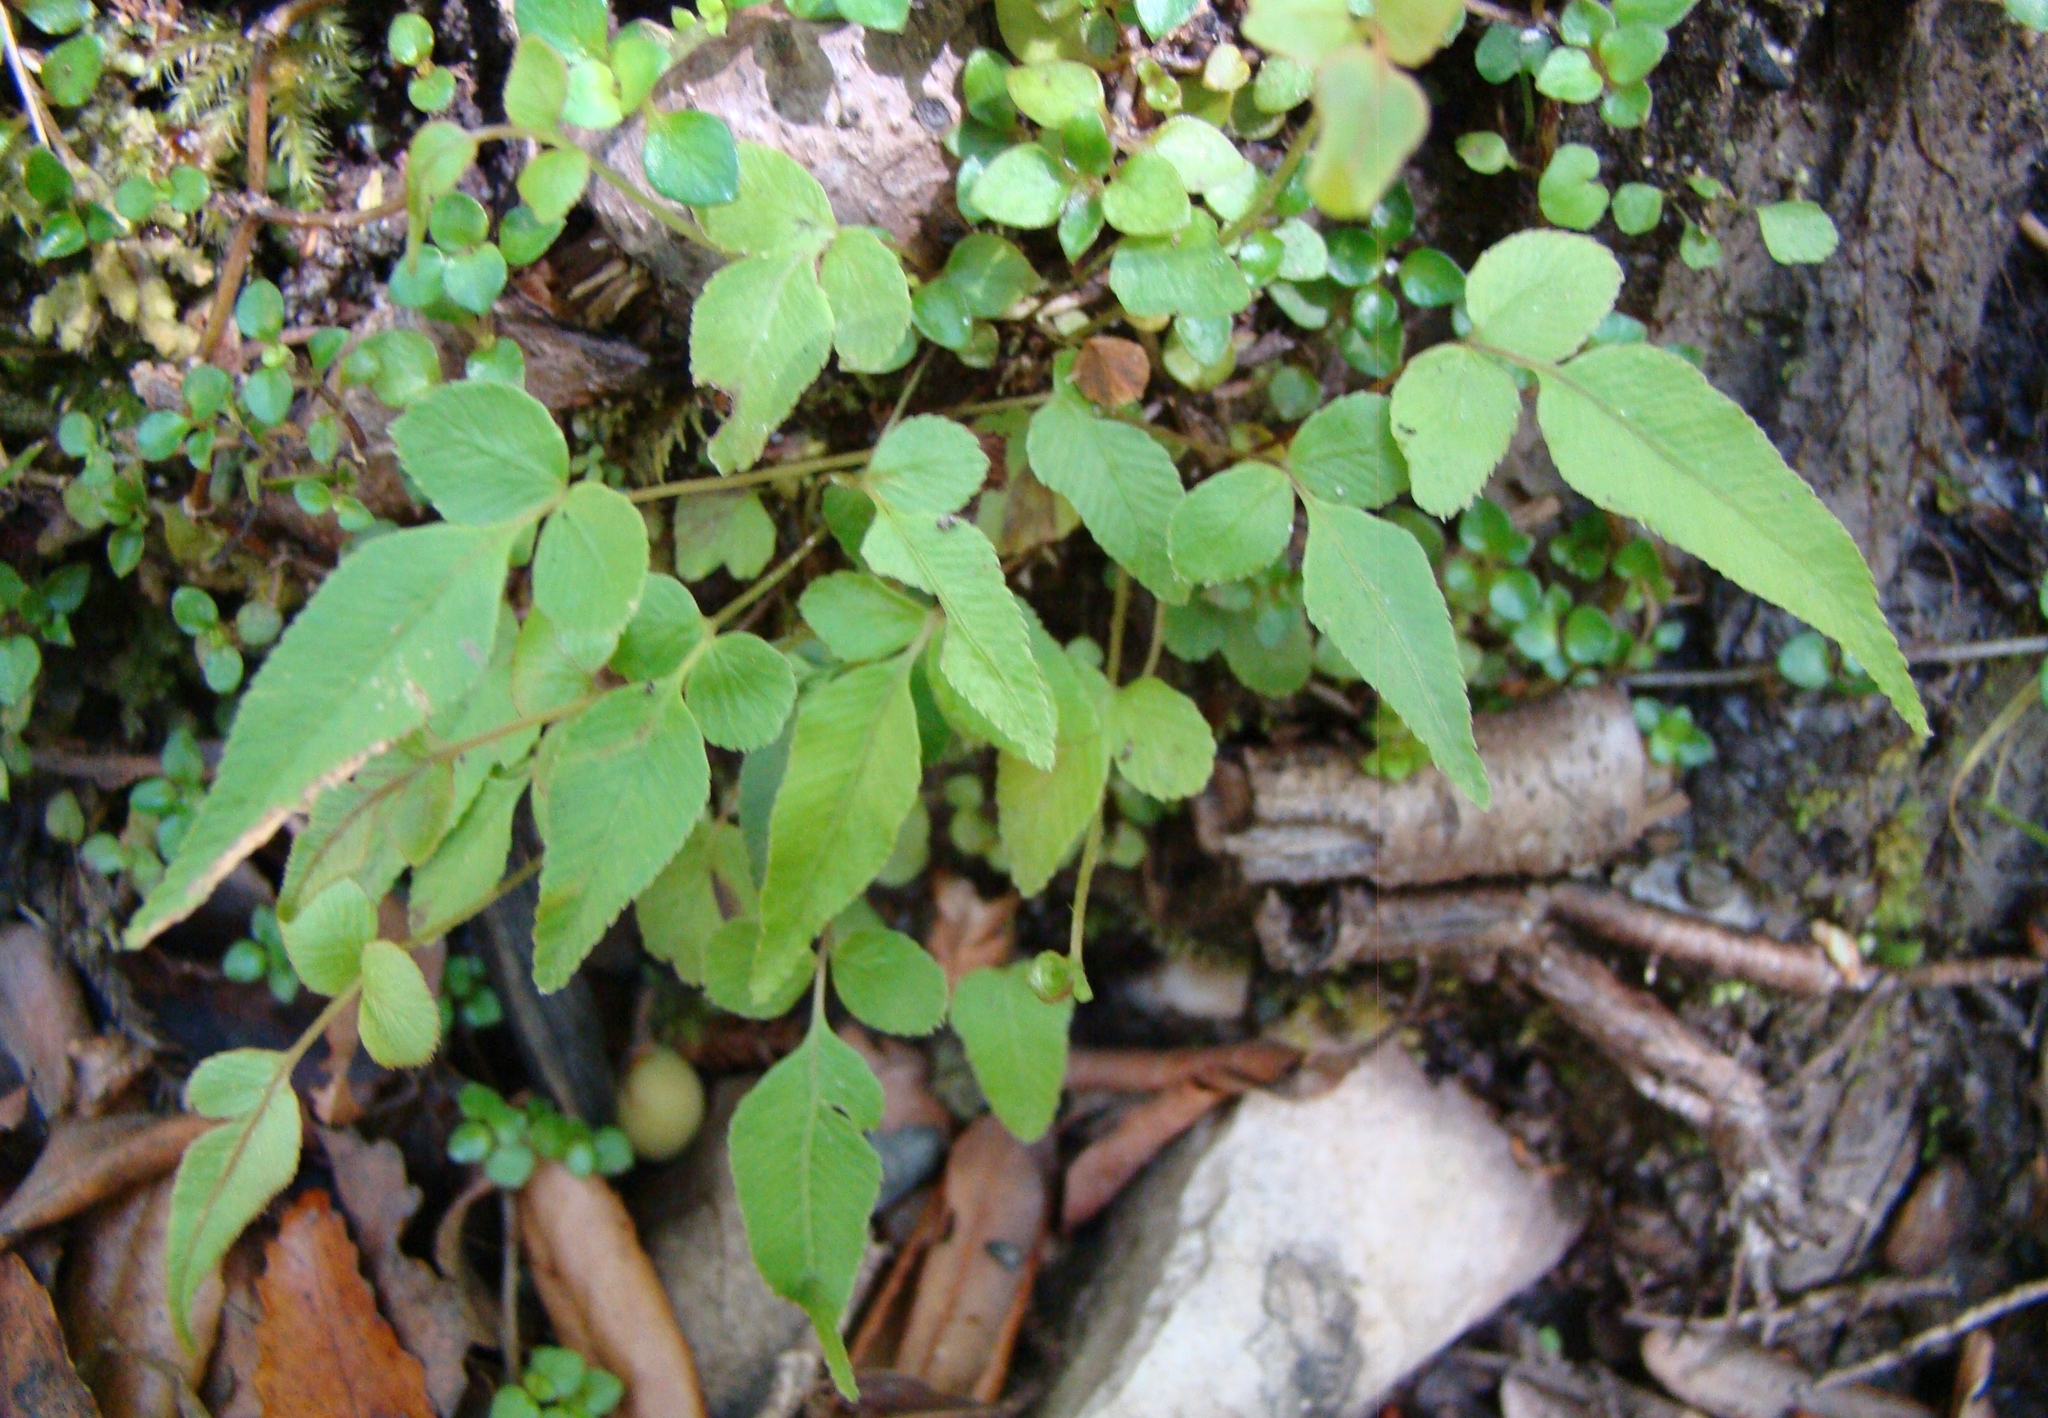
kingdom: Plantae
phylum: Tracheophyta
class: Polypodiopsida
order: Polypodiales
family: Blechnaceae
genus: Blechnum
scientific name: Blechnum
